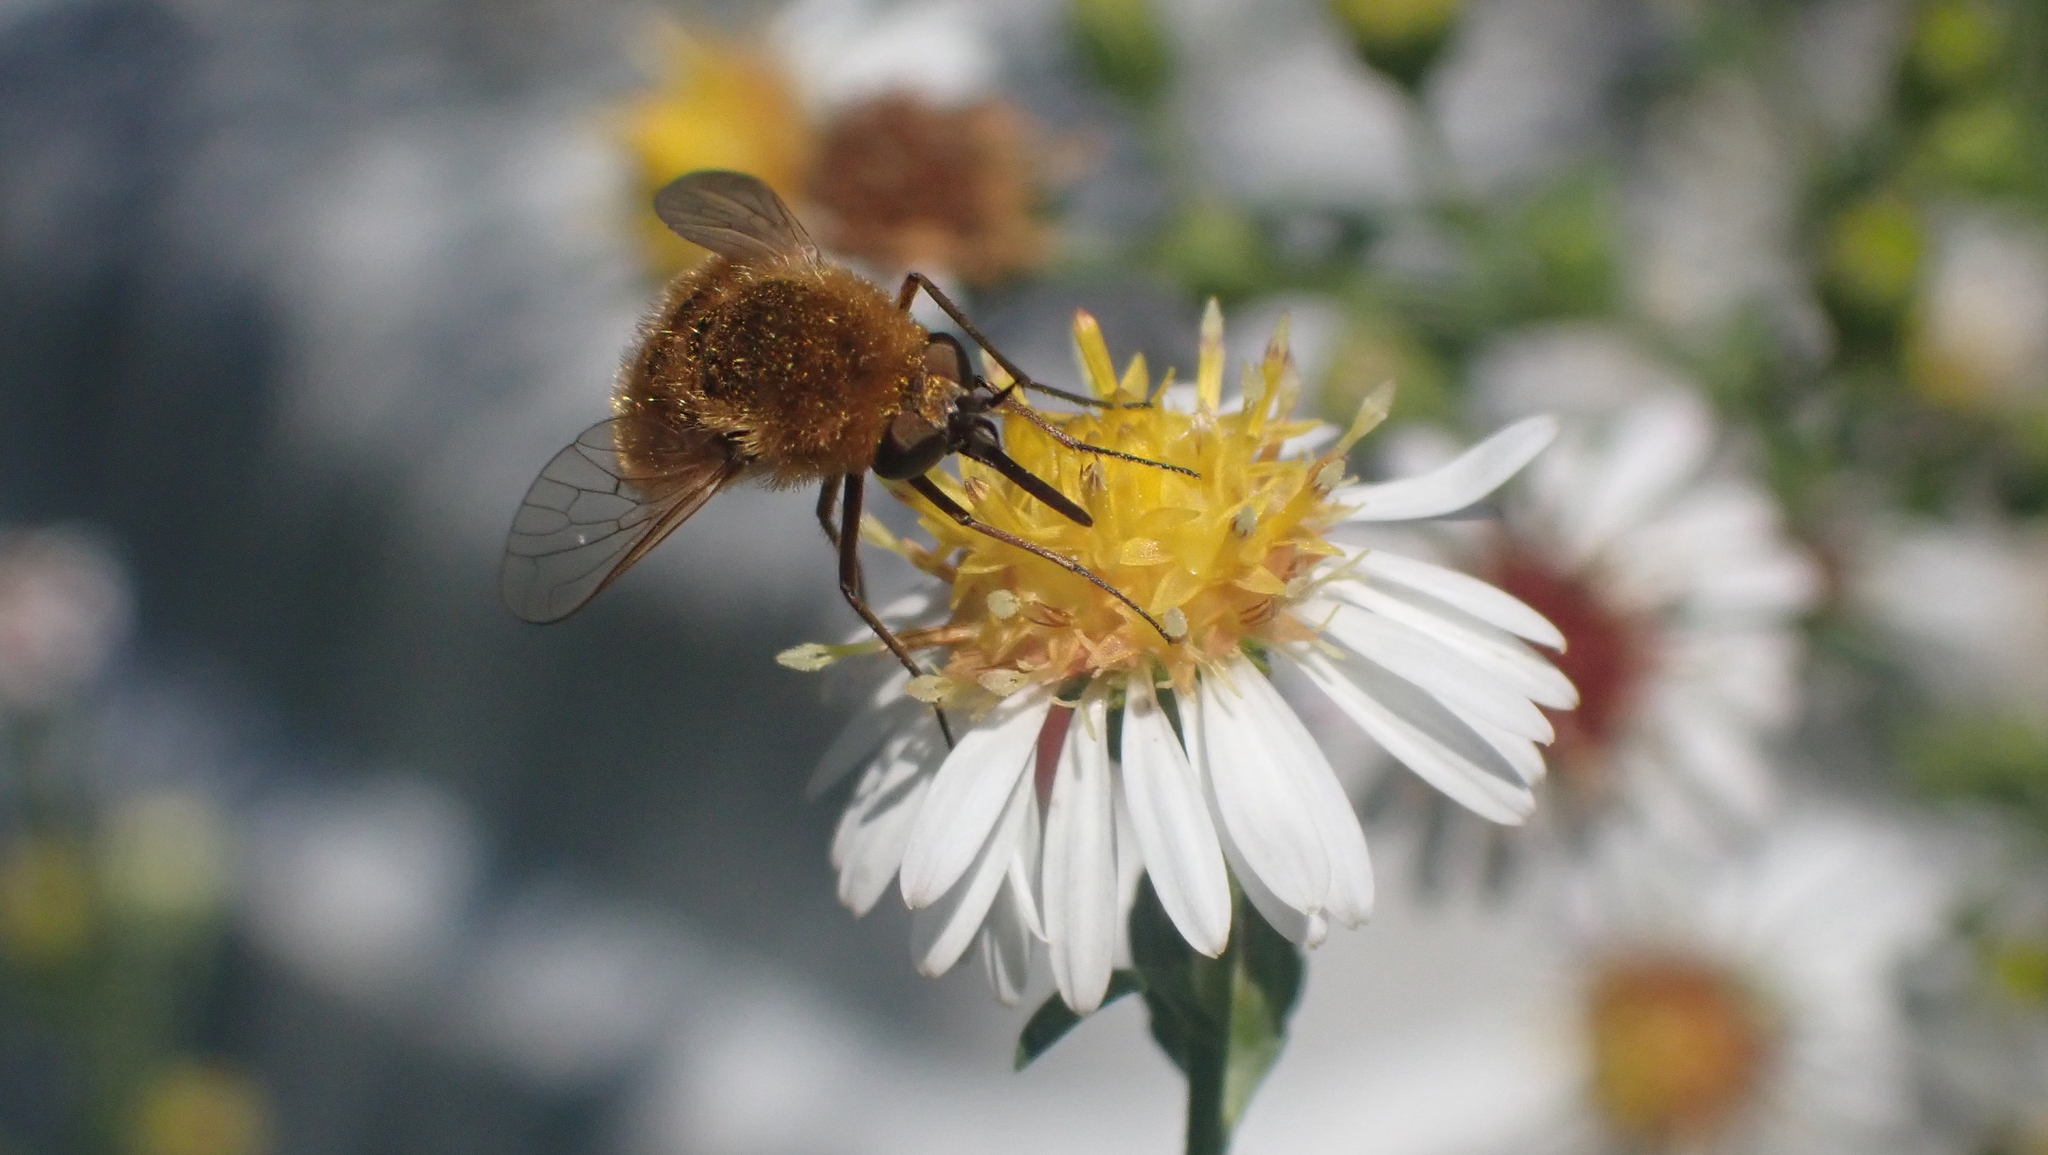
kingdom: Animalia
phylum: Arthropoda
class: Insecta
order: Diptera
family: Bombyliidae
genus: Sparnopolius
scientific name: Sparnopolius confusus
